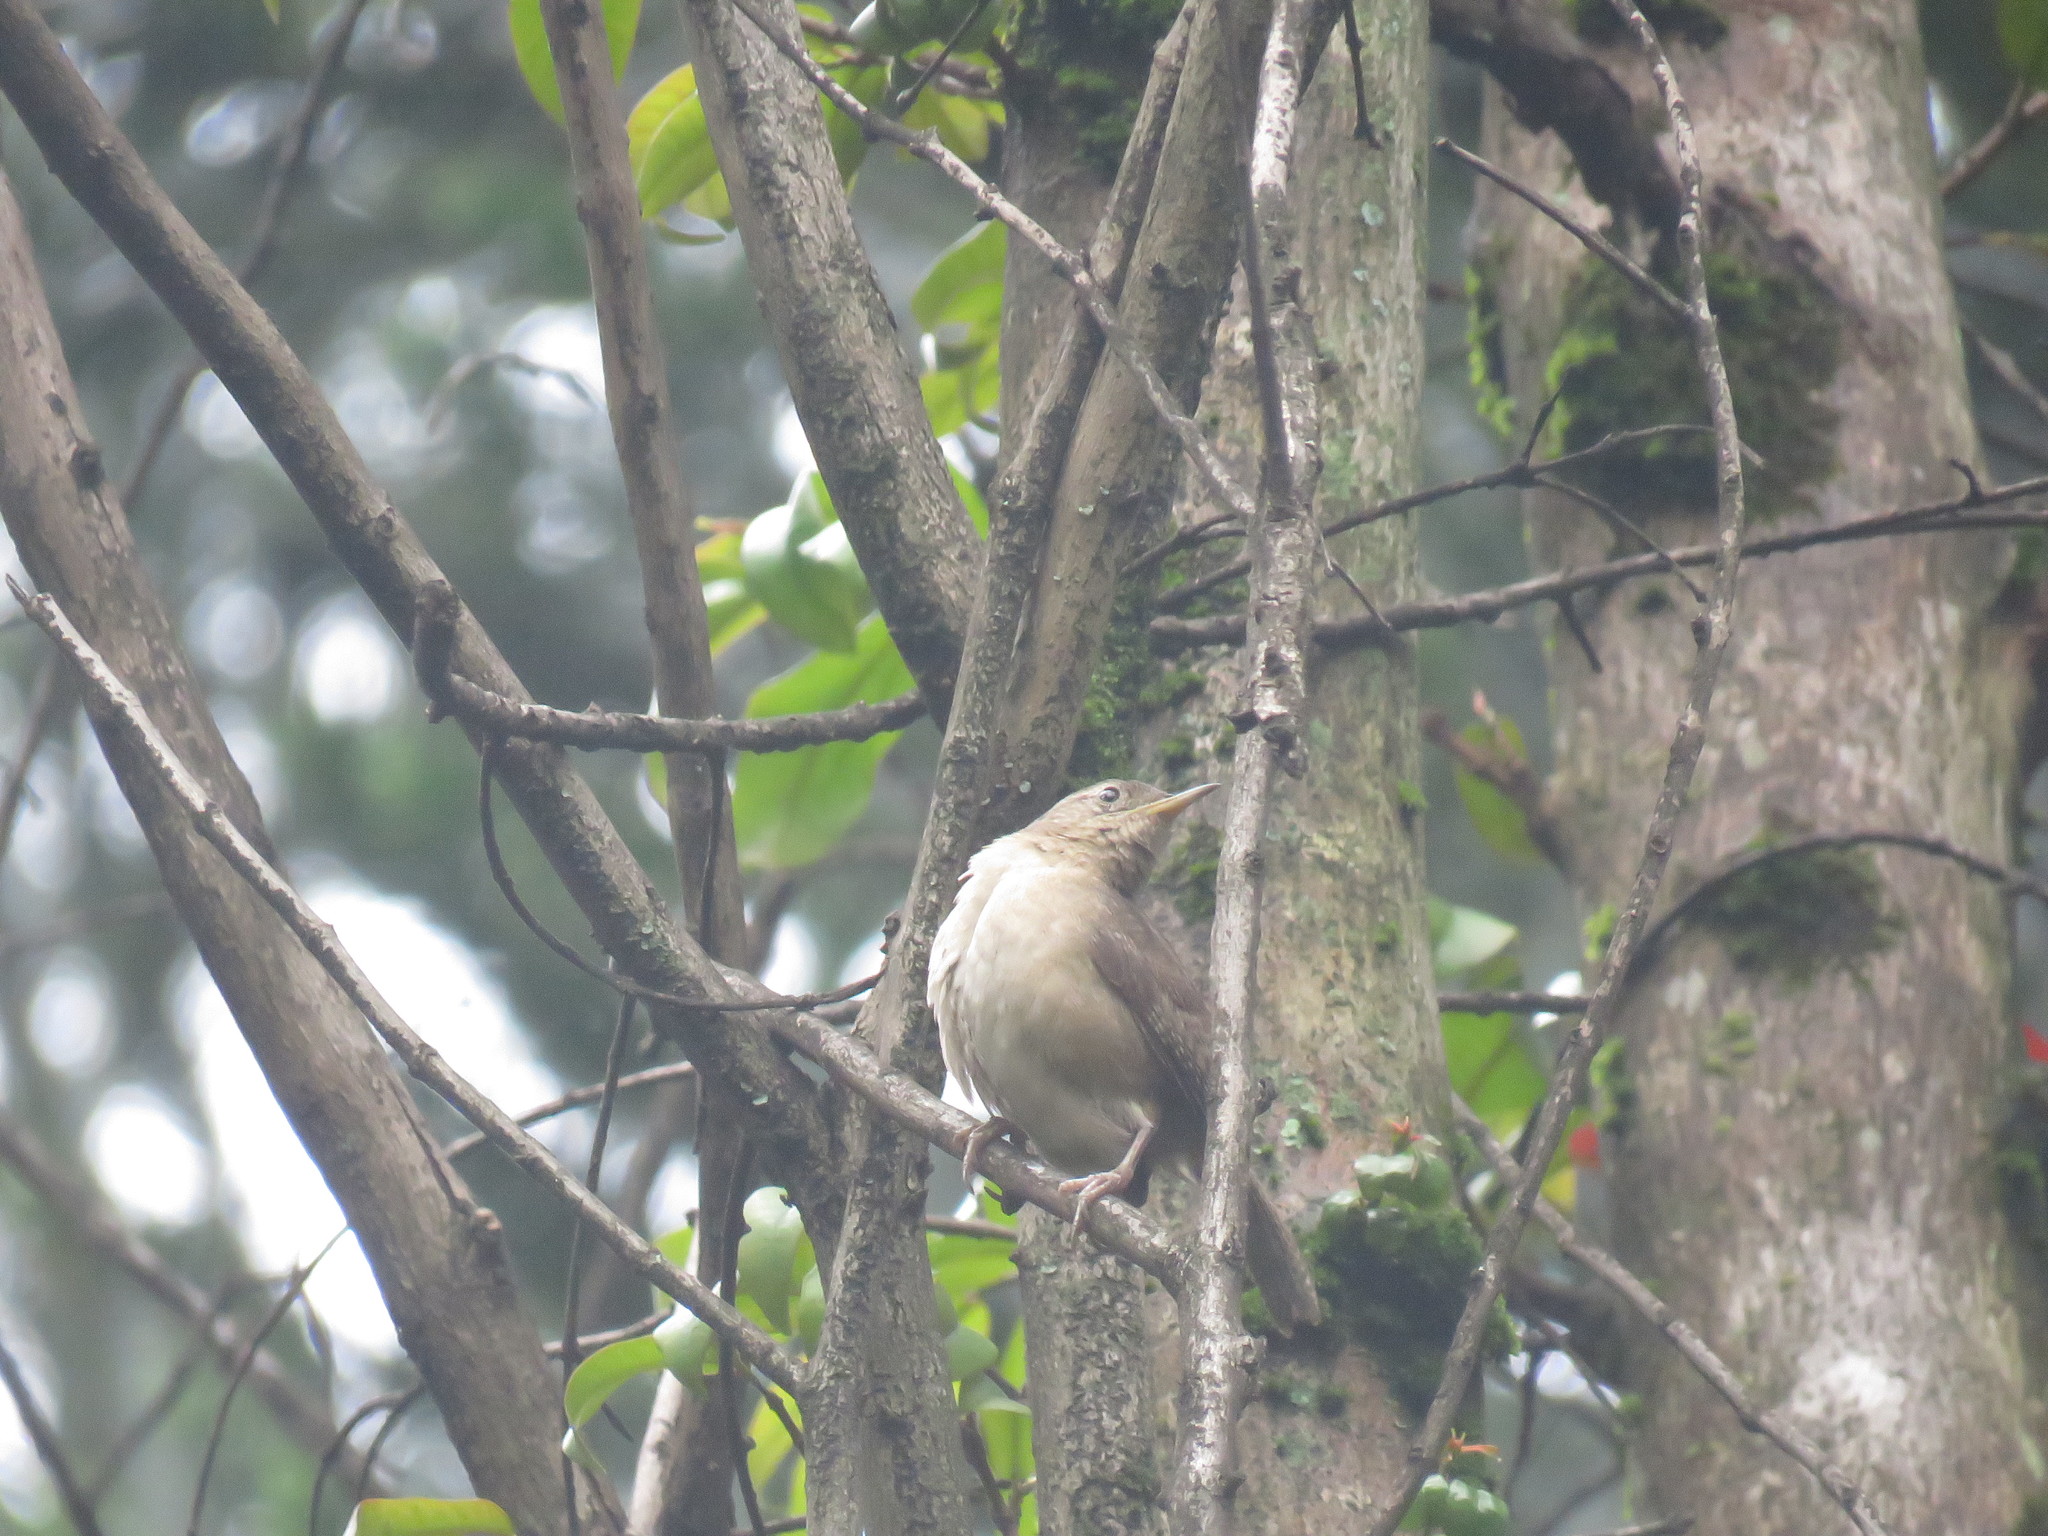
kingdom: Animalia
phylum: Chordata
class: Aves
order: Passeriformes
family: Troglodytidae
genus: Troglodytes
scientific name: Troglodytes aedon
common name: House wren
